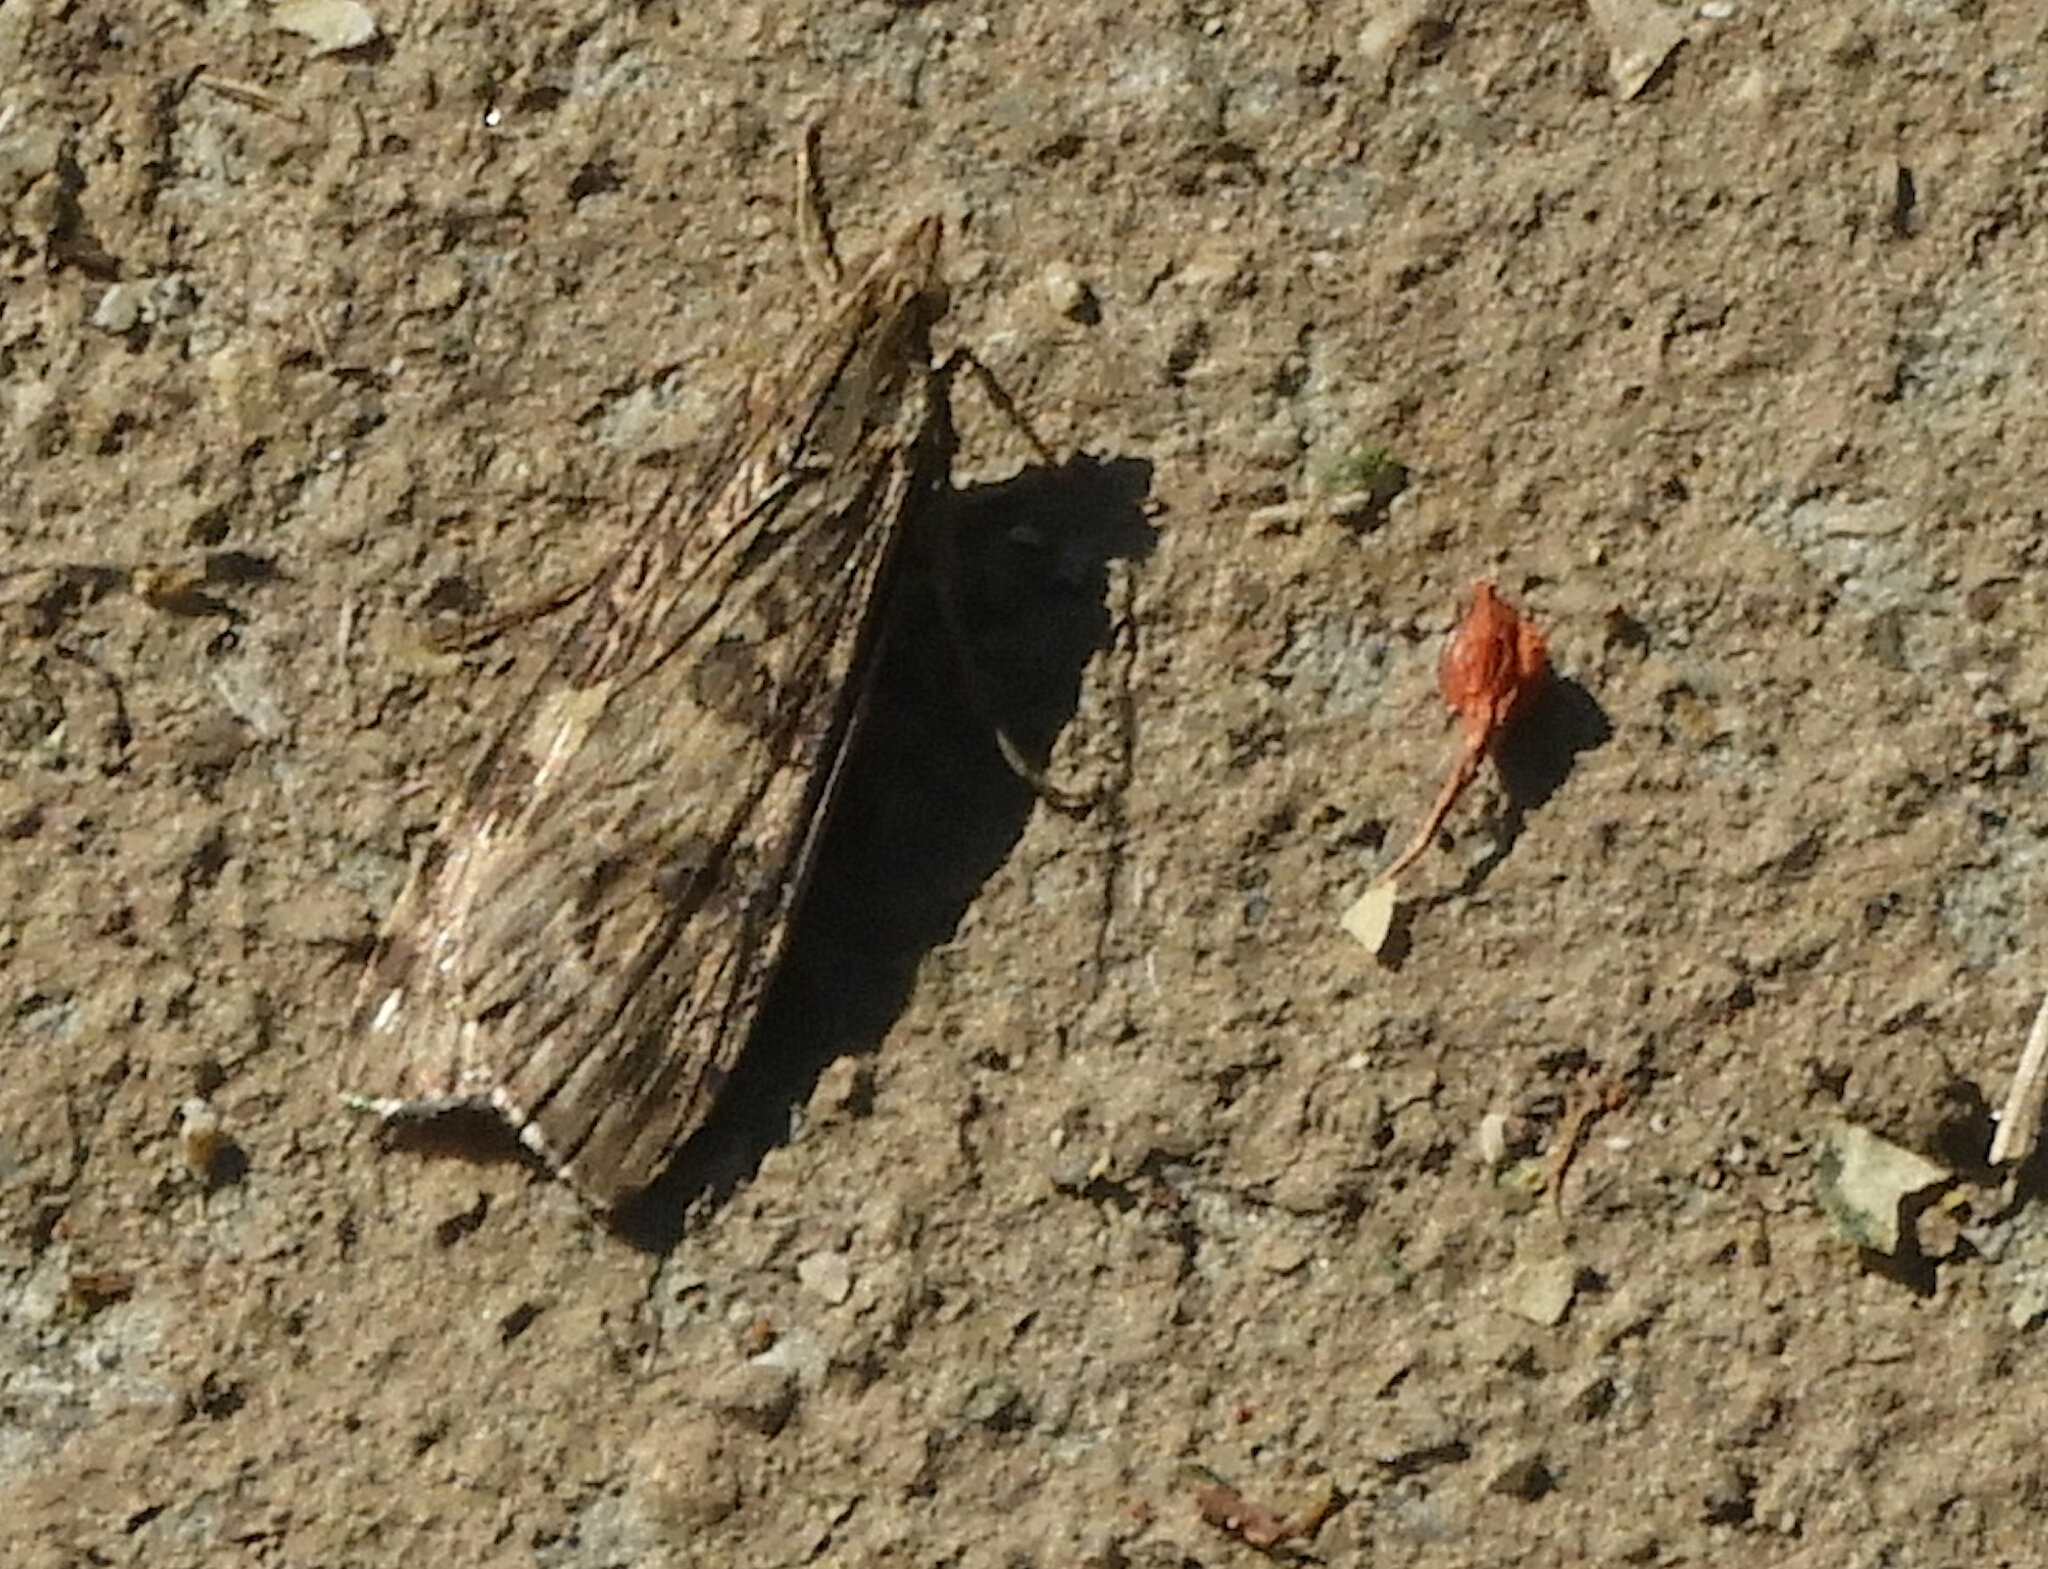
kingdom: Animalia
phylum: Arthropoda
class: Insecta
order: Lepidoptera
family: Crambidae
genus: Nomophila
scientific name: Nomophila nearctica
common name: American rush veneer
